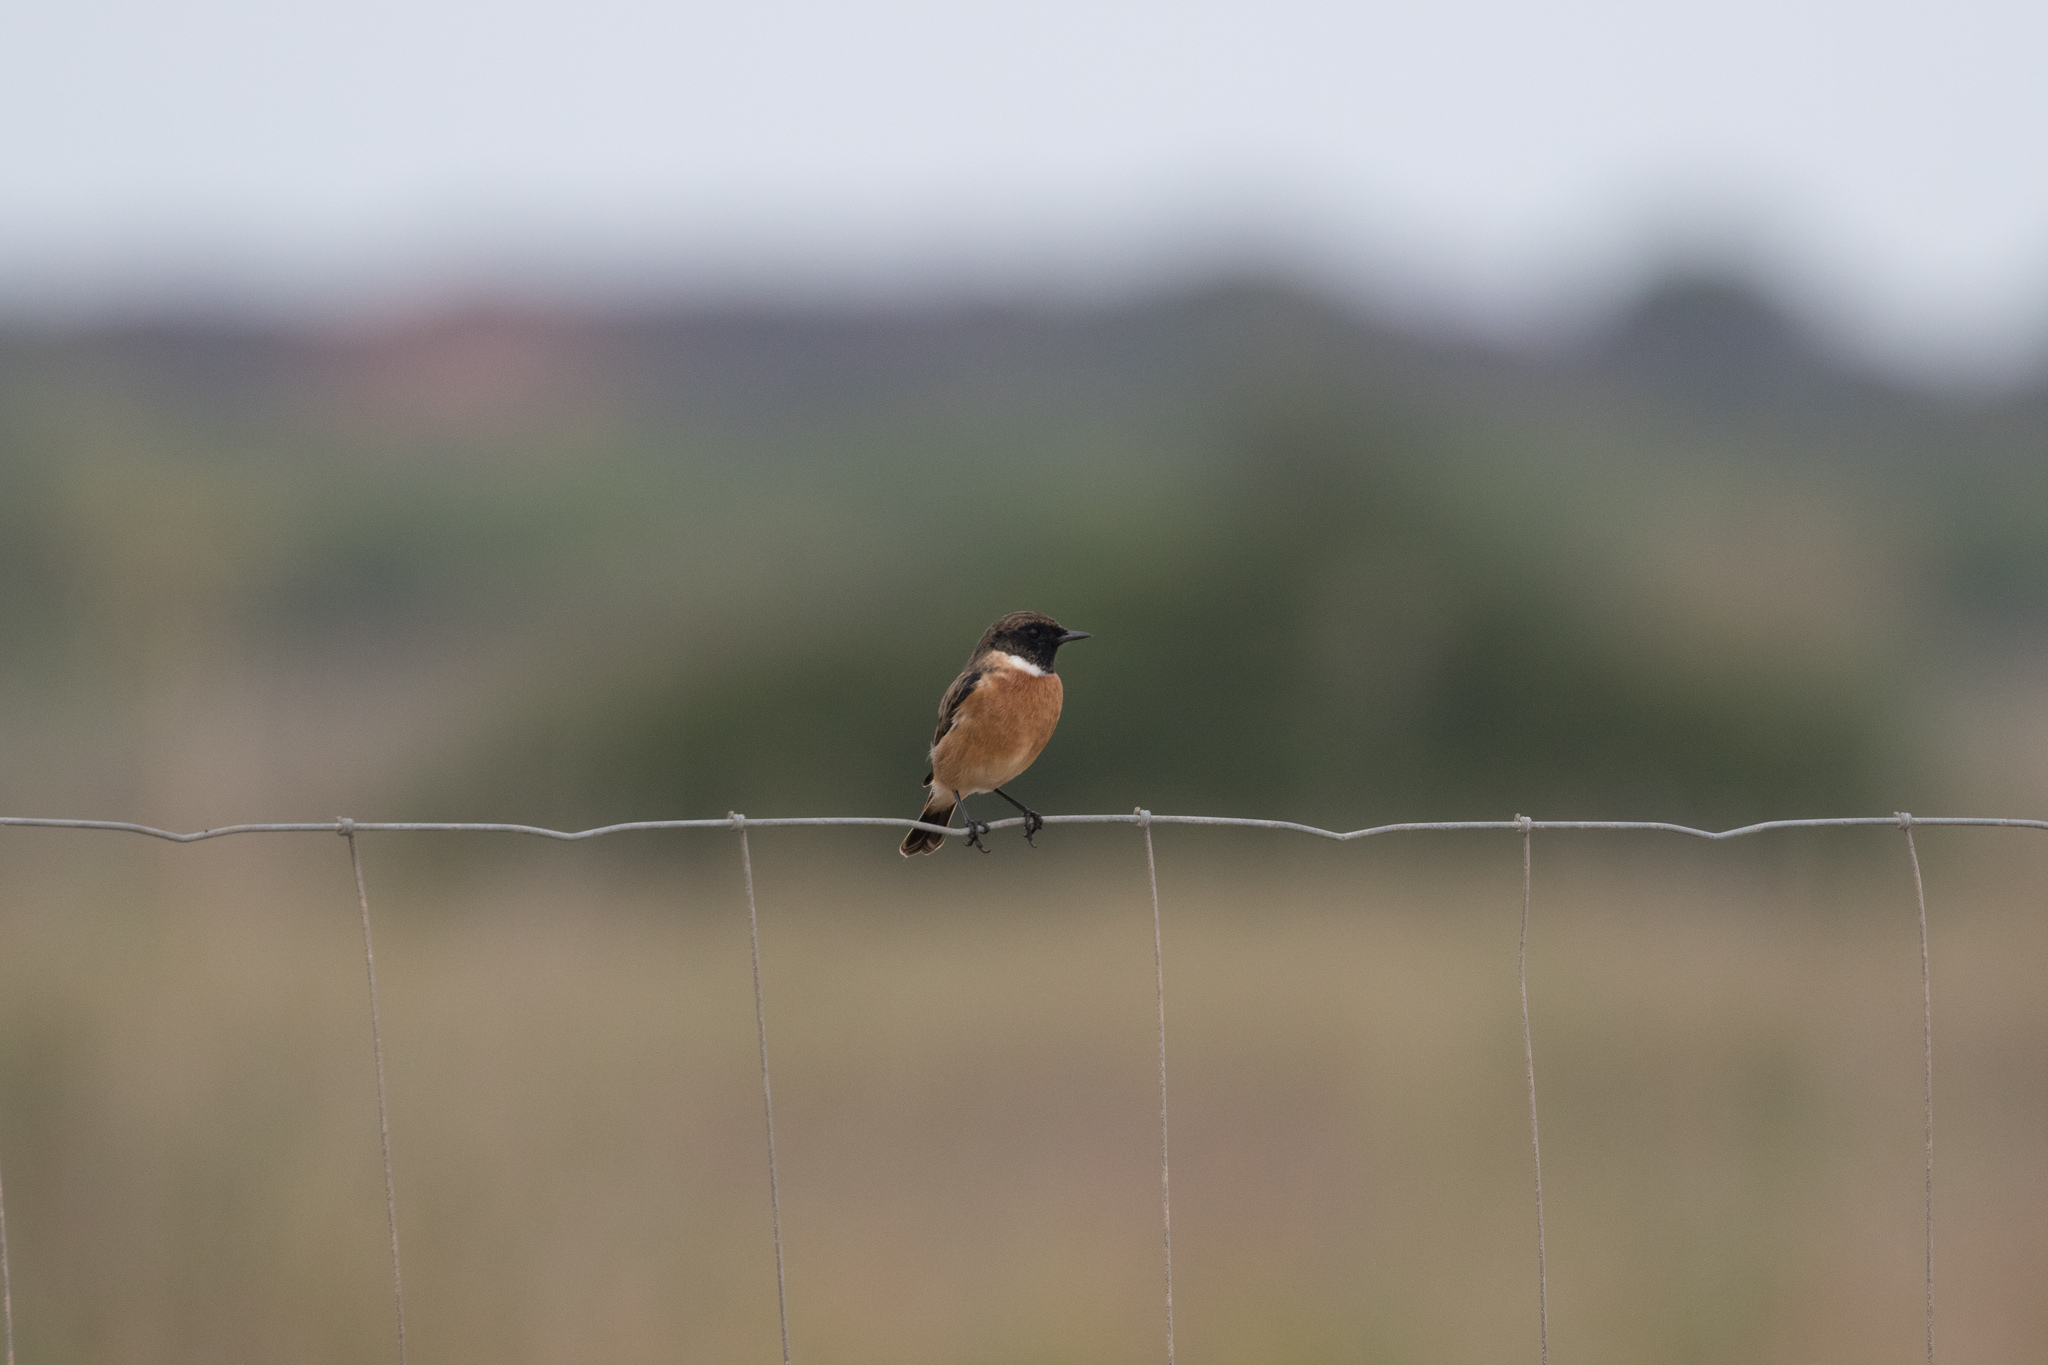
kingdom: Animalia
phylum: Chordata
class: Aves
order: Passeriformes
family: Muscicapidae
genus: Saxicola
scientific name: Saxicola rubicola
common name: European stonechat
